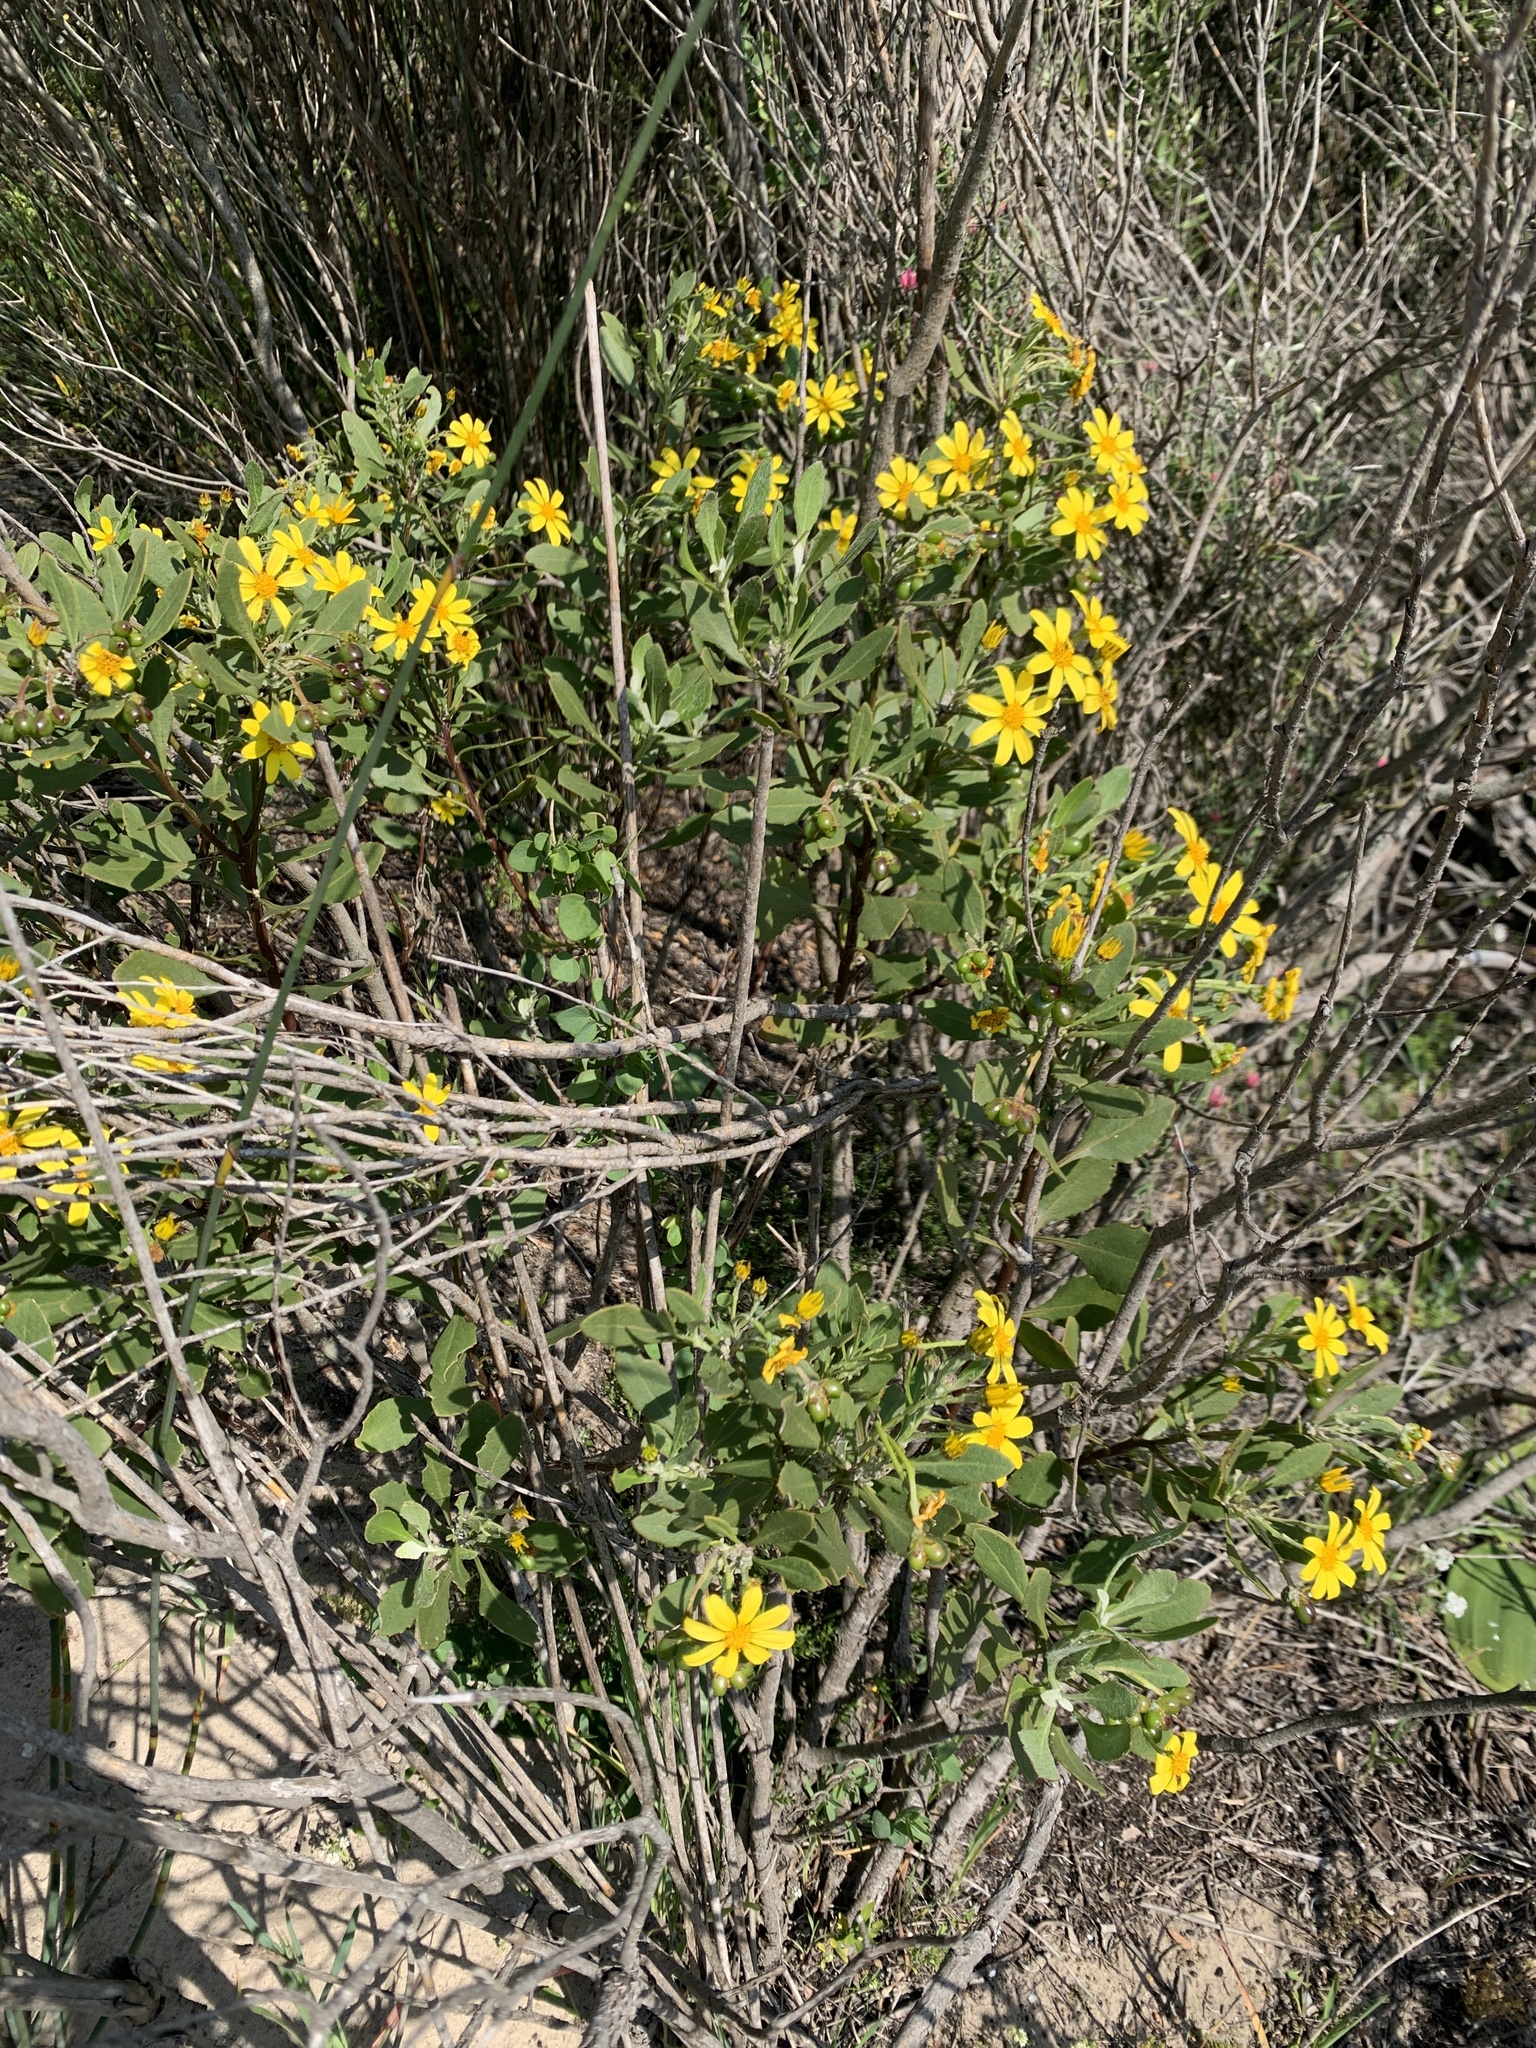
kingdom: Plantae
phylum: Tracheophyta
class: Magnoliopsida
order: Asterales
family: Asteraceae
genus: Osteospermum
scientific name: Osteospermum moniliferum
